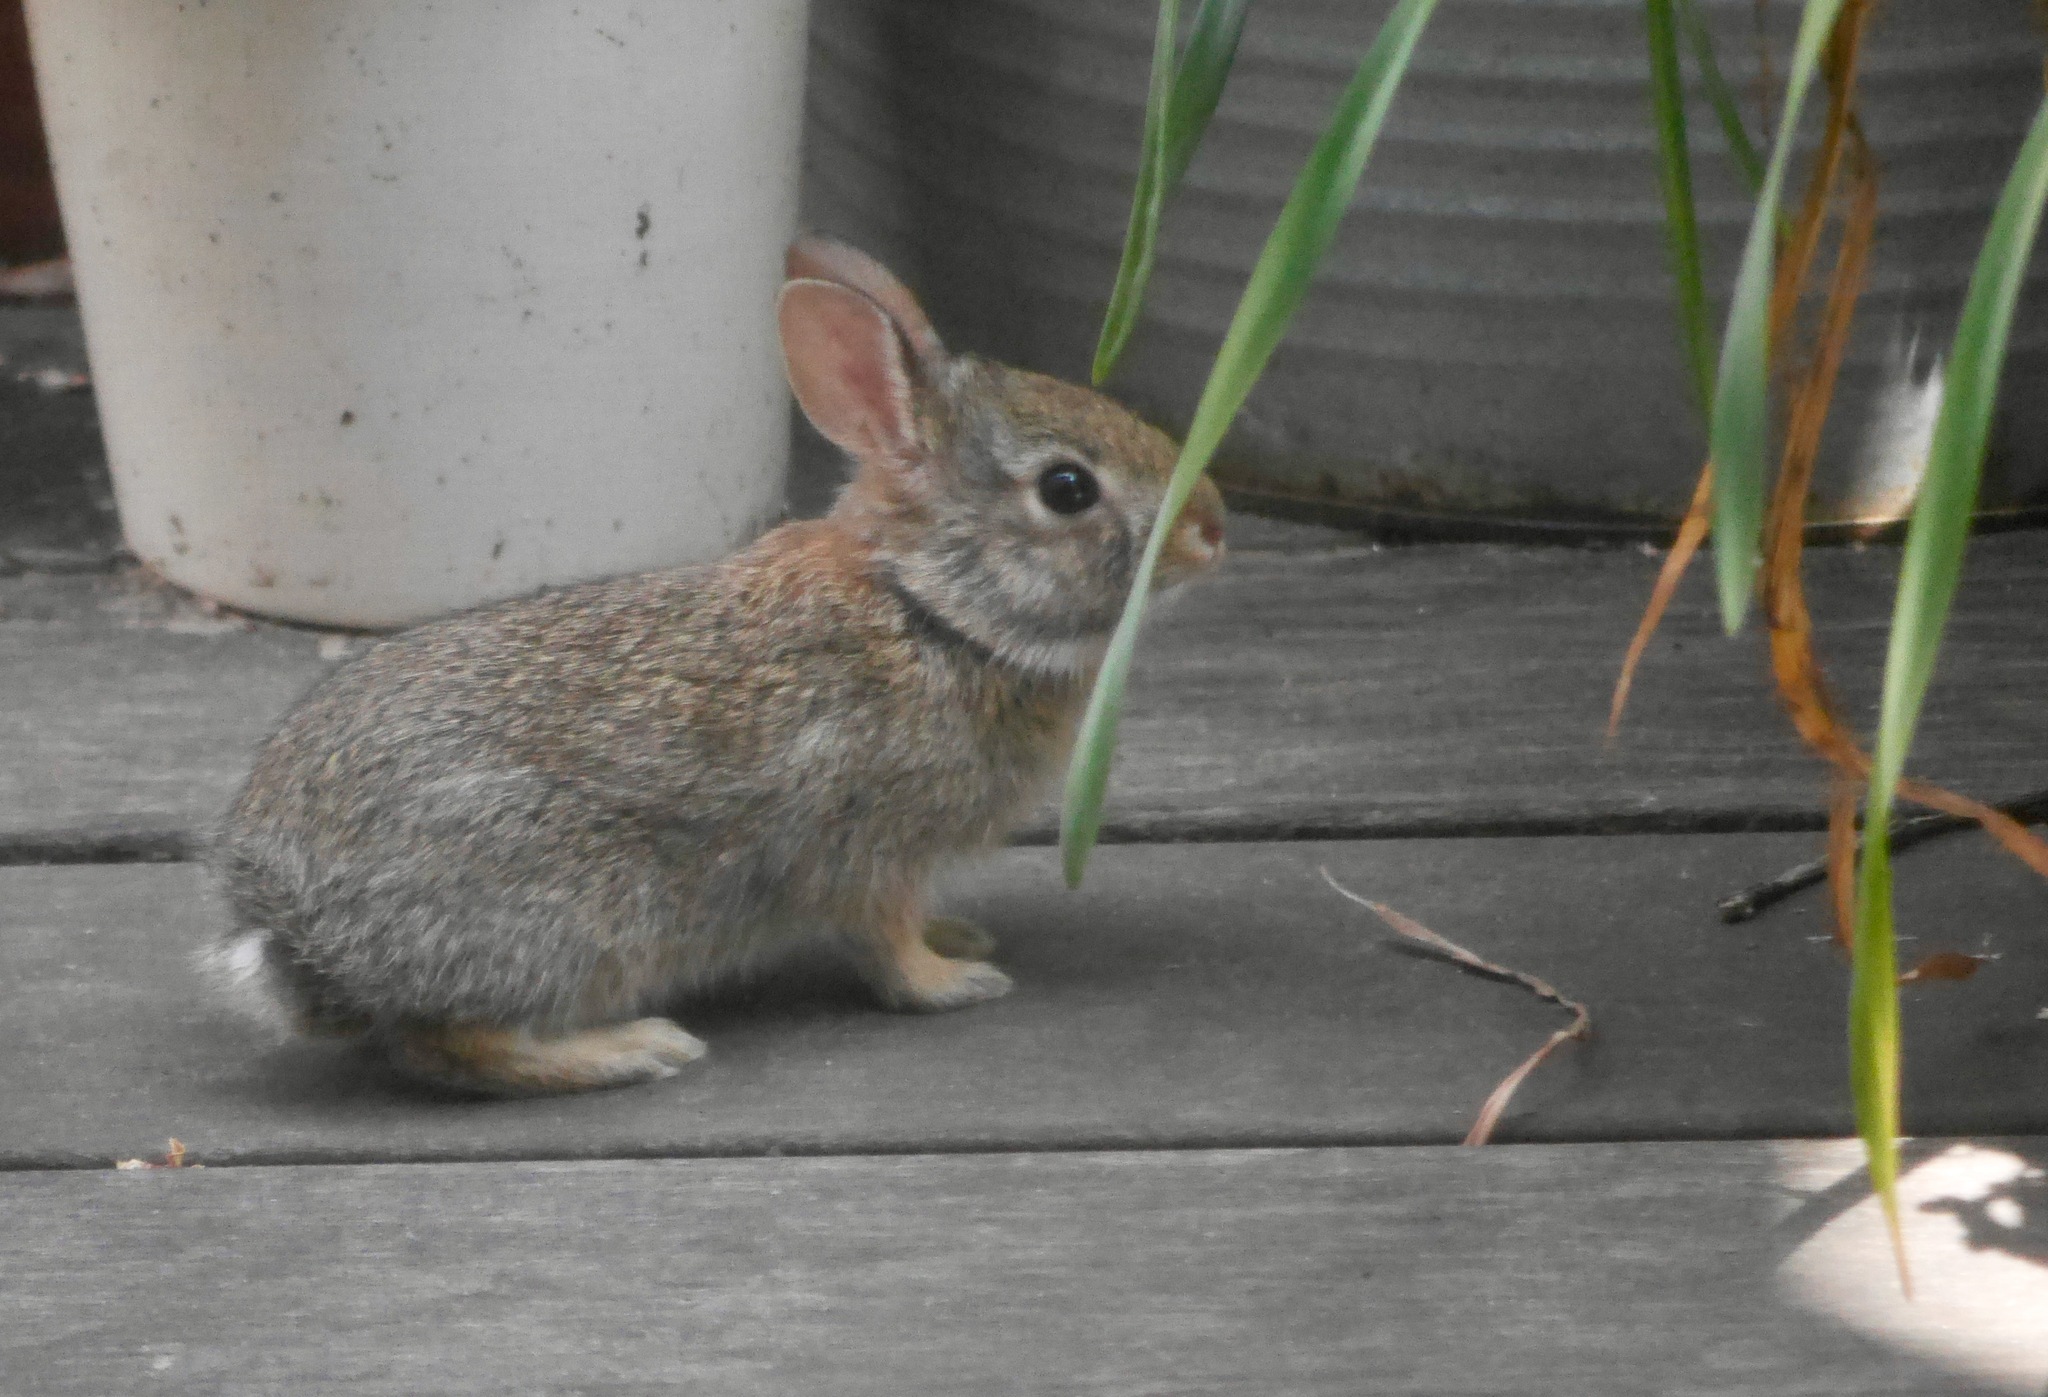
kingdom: Animalia
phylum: Chordata
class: Mammalia
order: Lagomorpha
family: Leporidae
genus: Sylvilagus
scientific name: Sylvilagus floridanus
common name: Eastern cottontail
